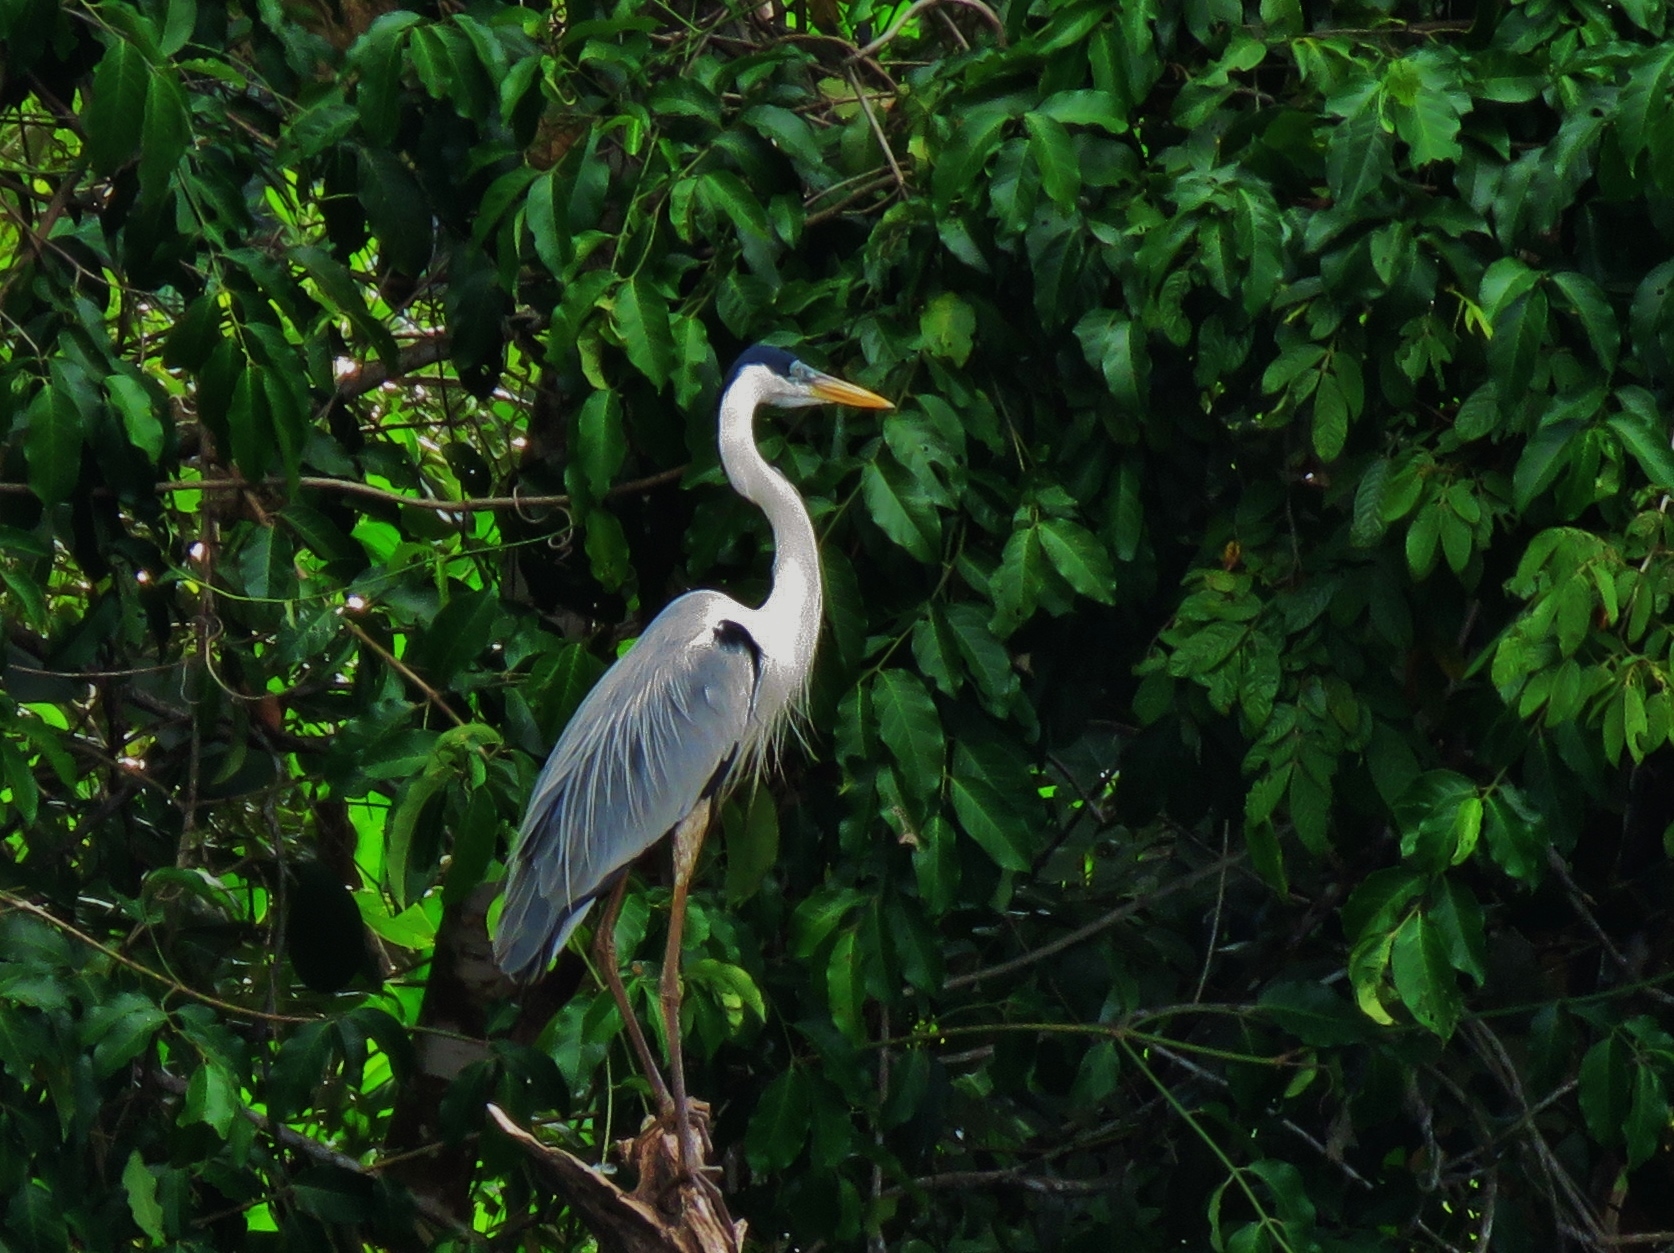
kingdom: Animalia
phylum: Chordata
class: Aves
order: Pelecaniformes
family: Ardeidae
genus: Ardea
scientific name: Ardea cocoi
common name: Cocoi heron
